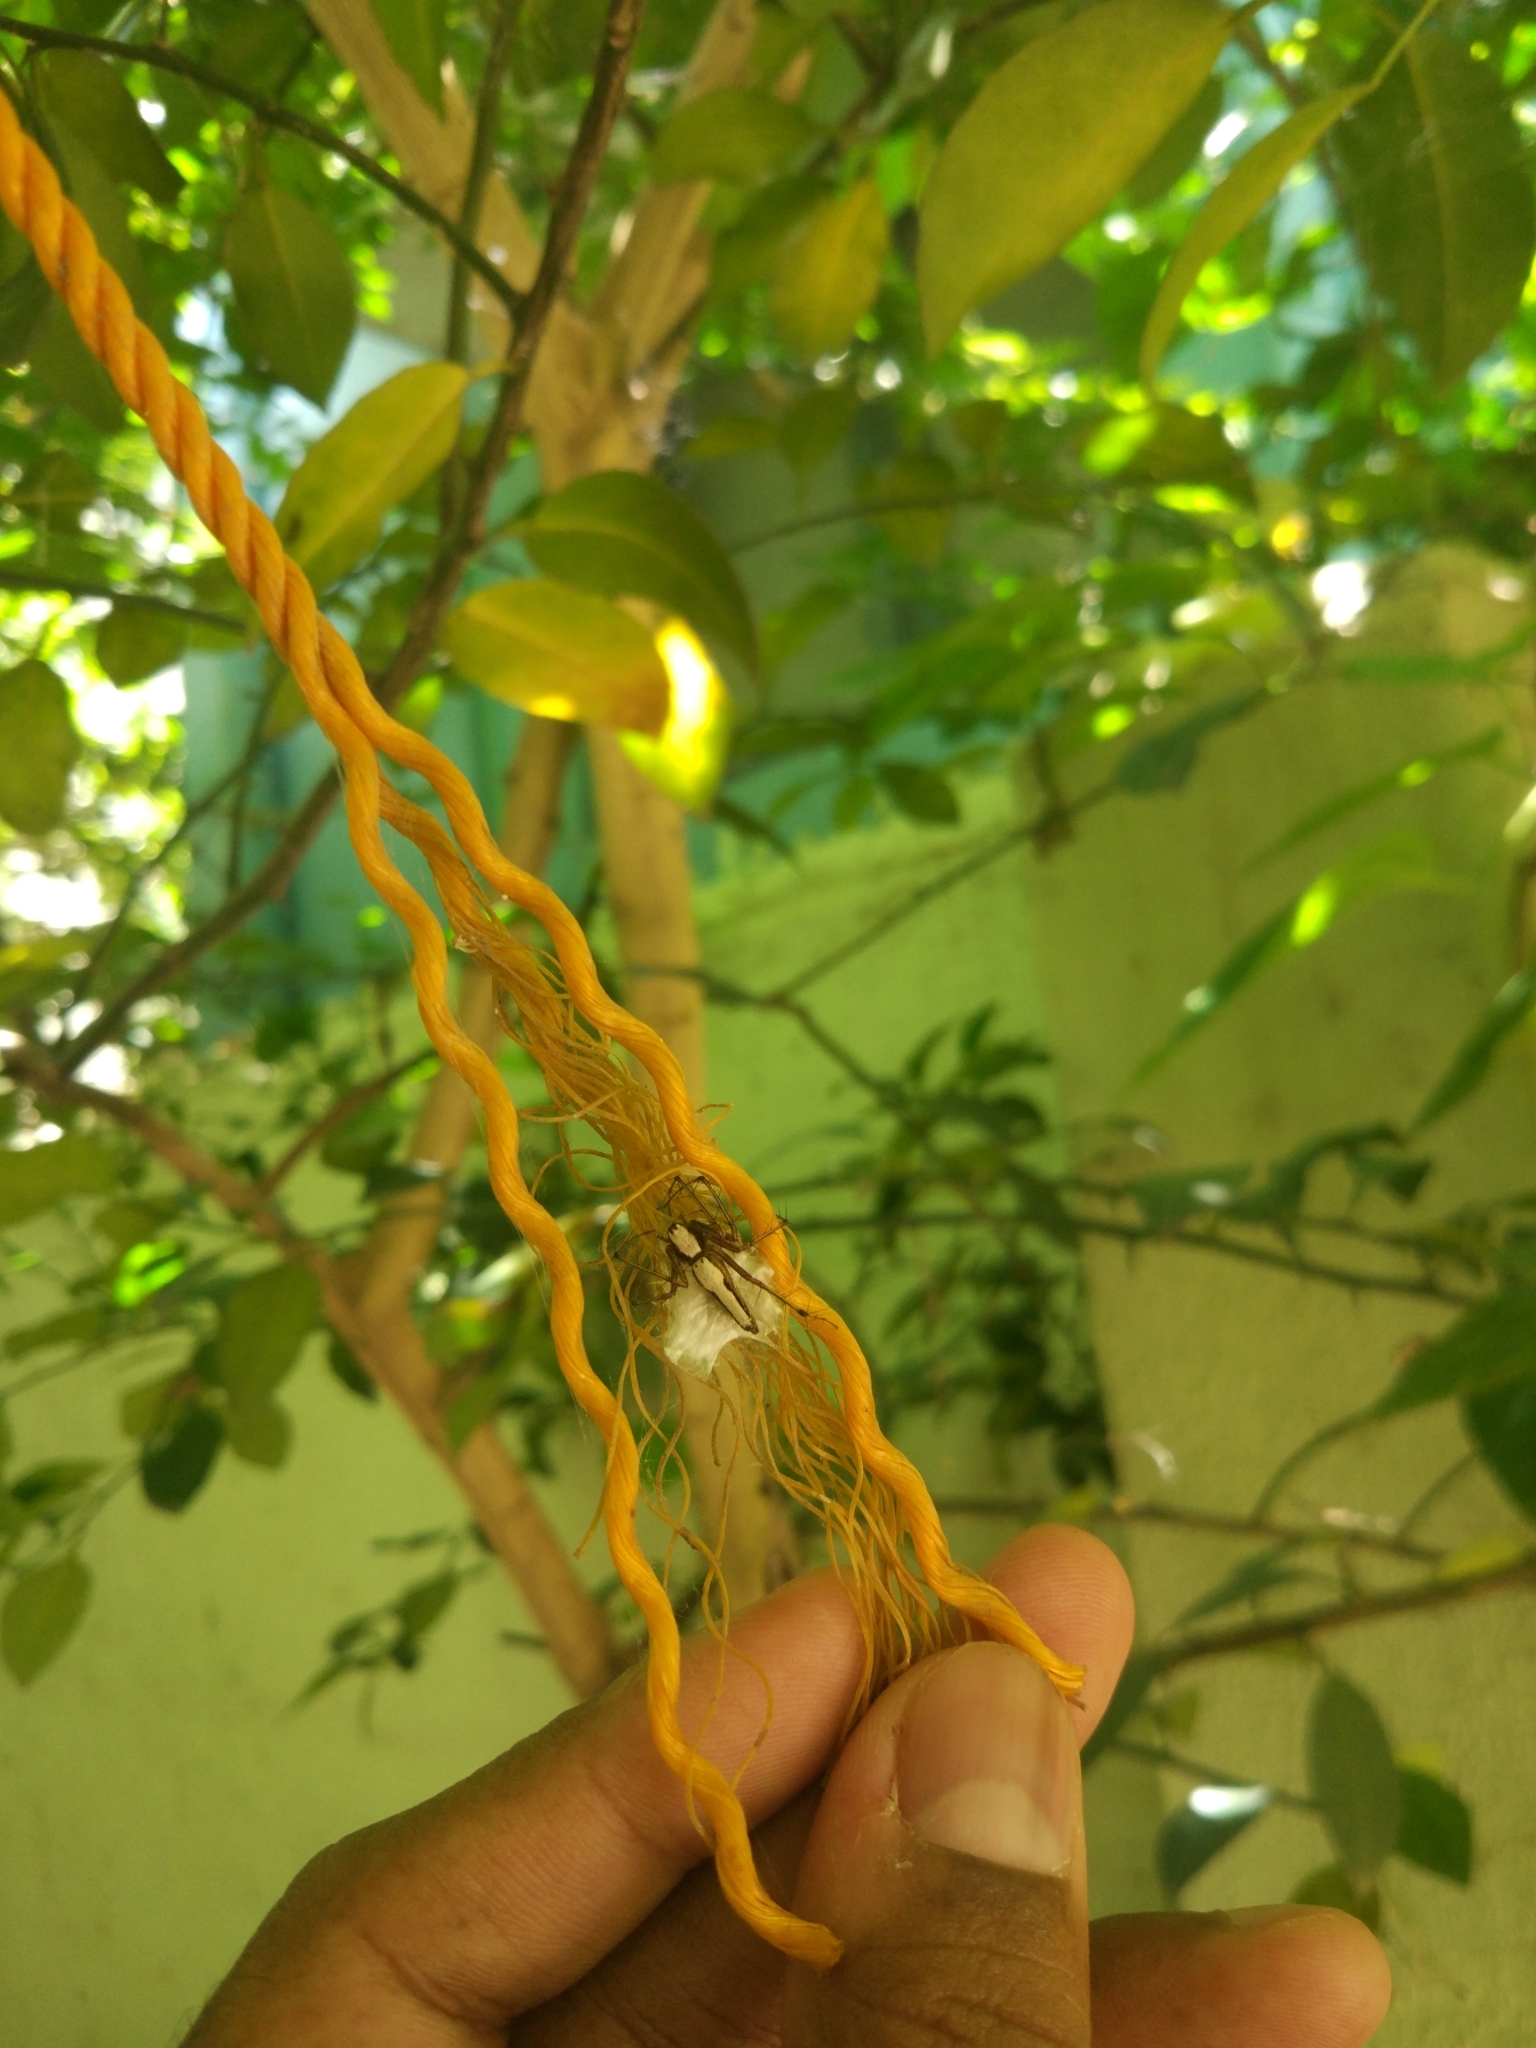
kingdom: Animalia
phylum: Arthropoda
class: Arachnida
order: Araneae
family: Oxyopidae
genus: Oxyopes
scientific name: Oxyopes shweta
